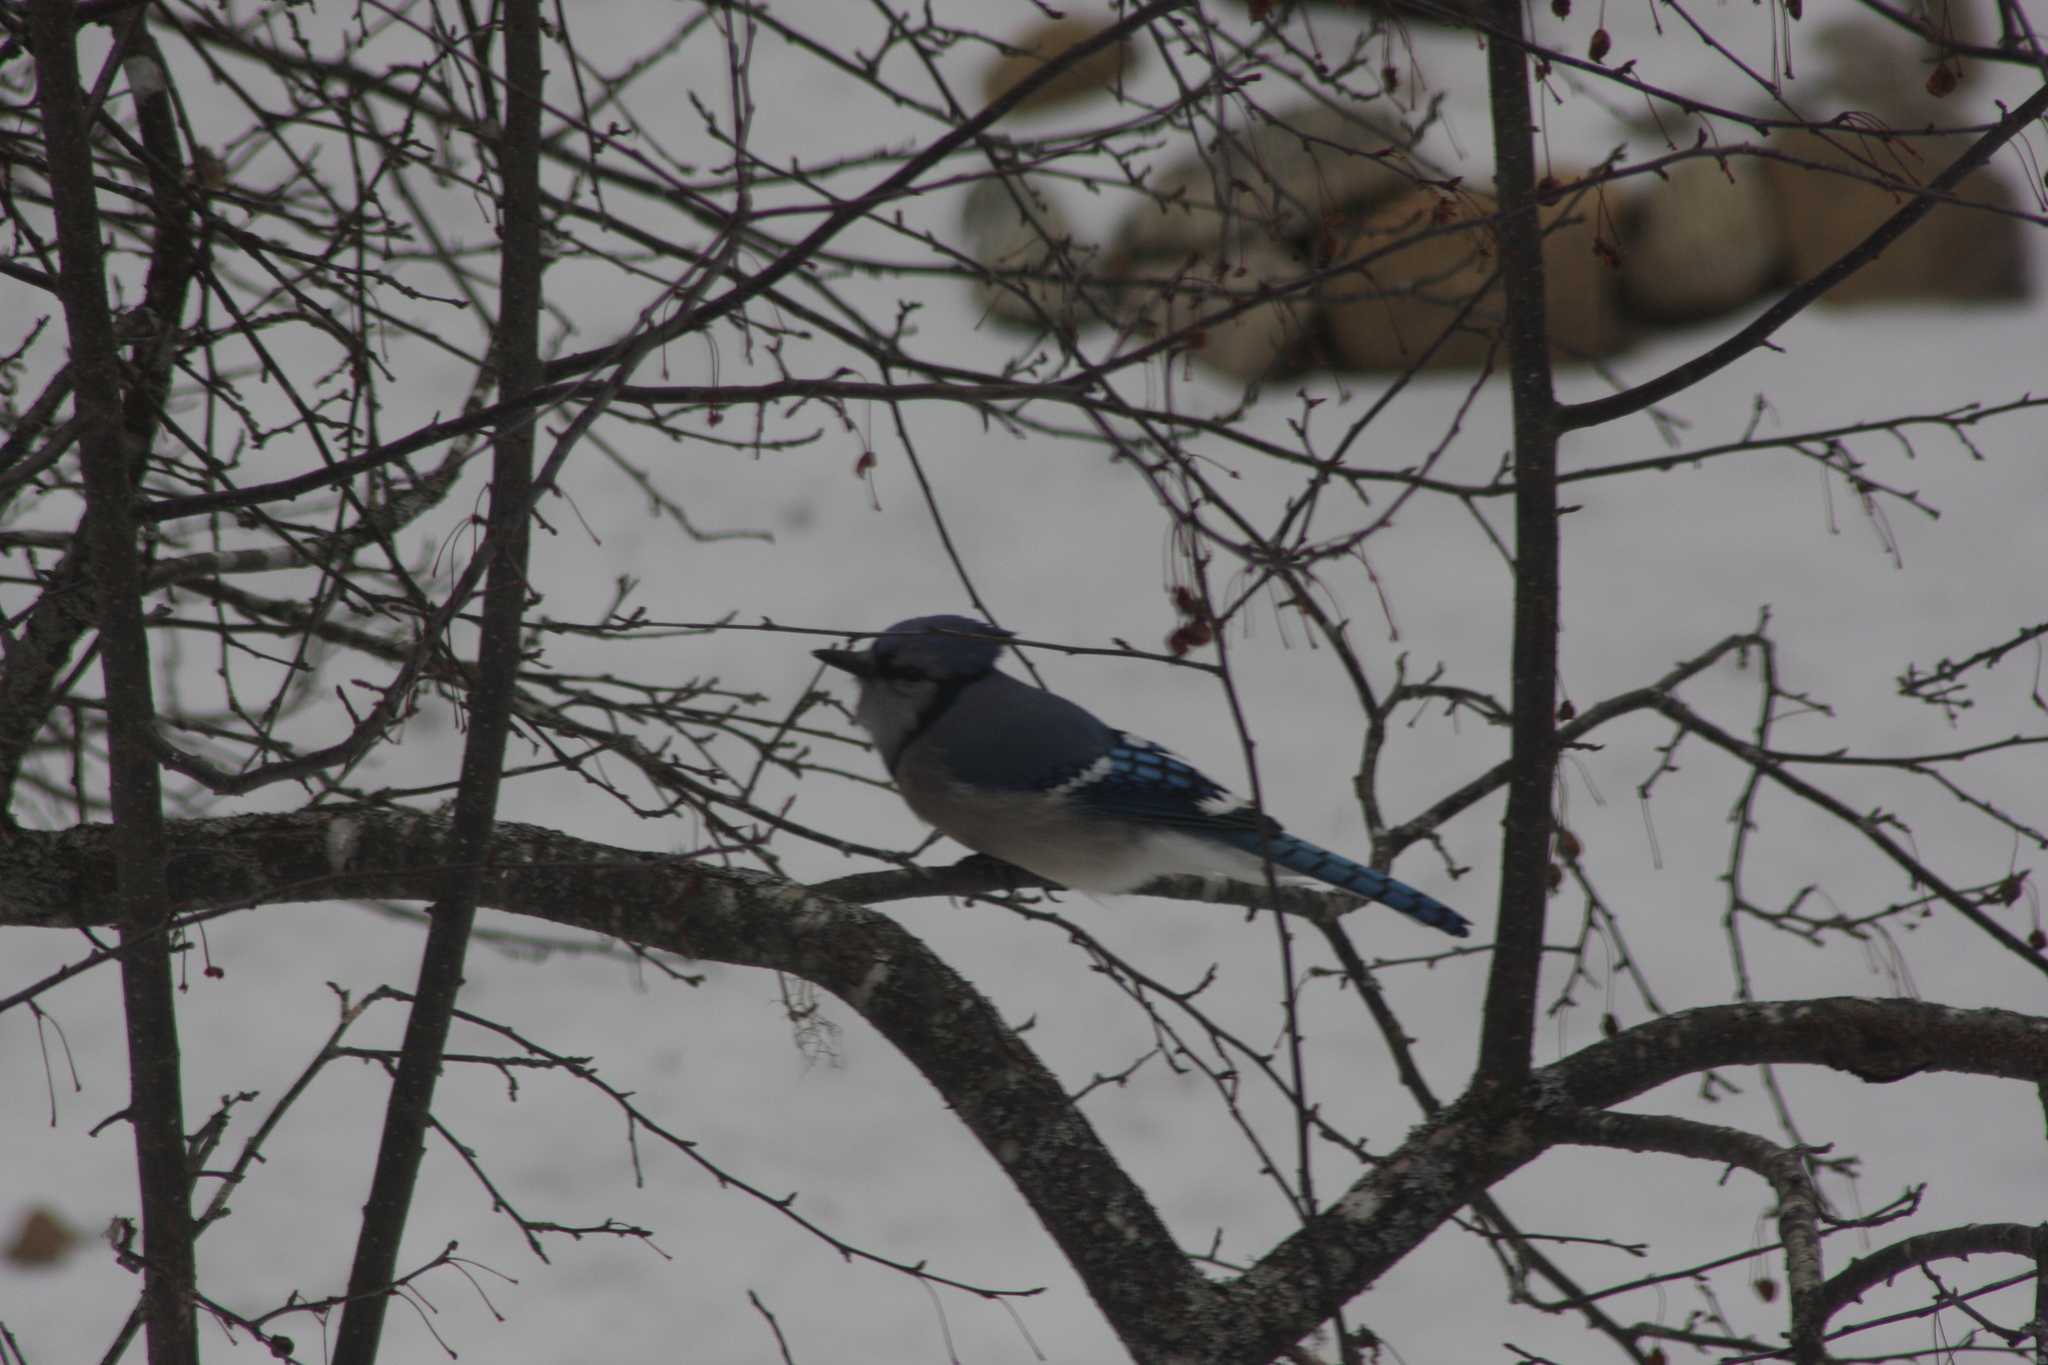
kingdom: Animalia
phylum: Chordata
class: Aves
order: Passeriformes
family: Corvidae
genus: Cyanocitta
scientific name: Cyanocitta cristata
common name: Blue jay
